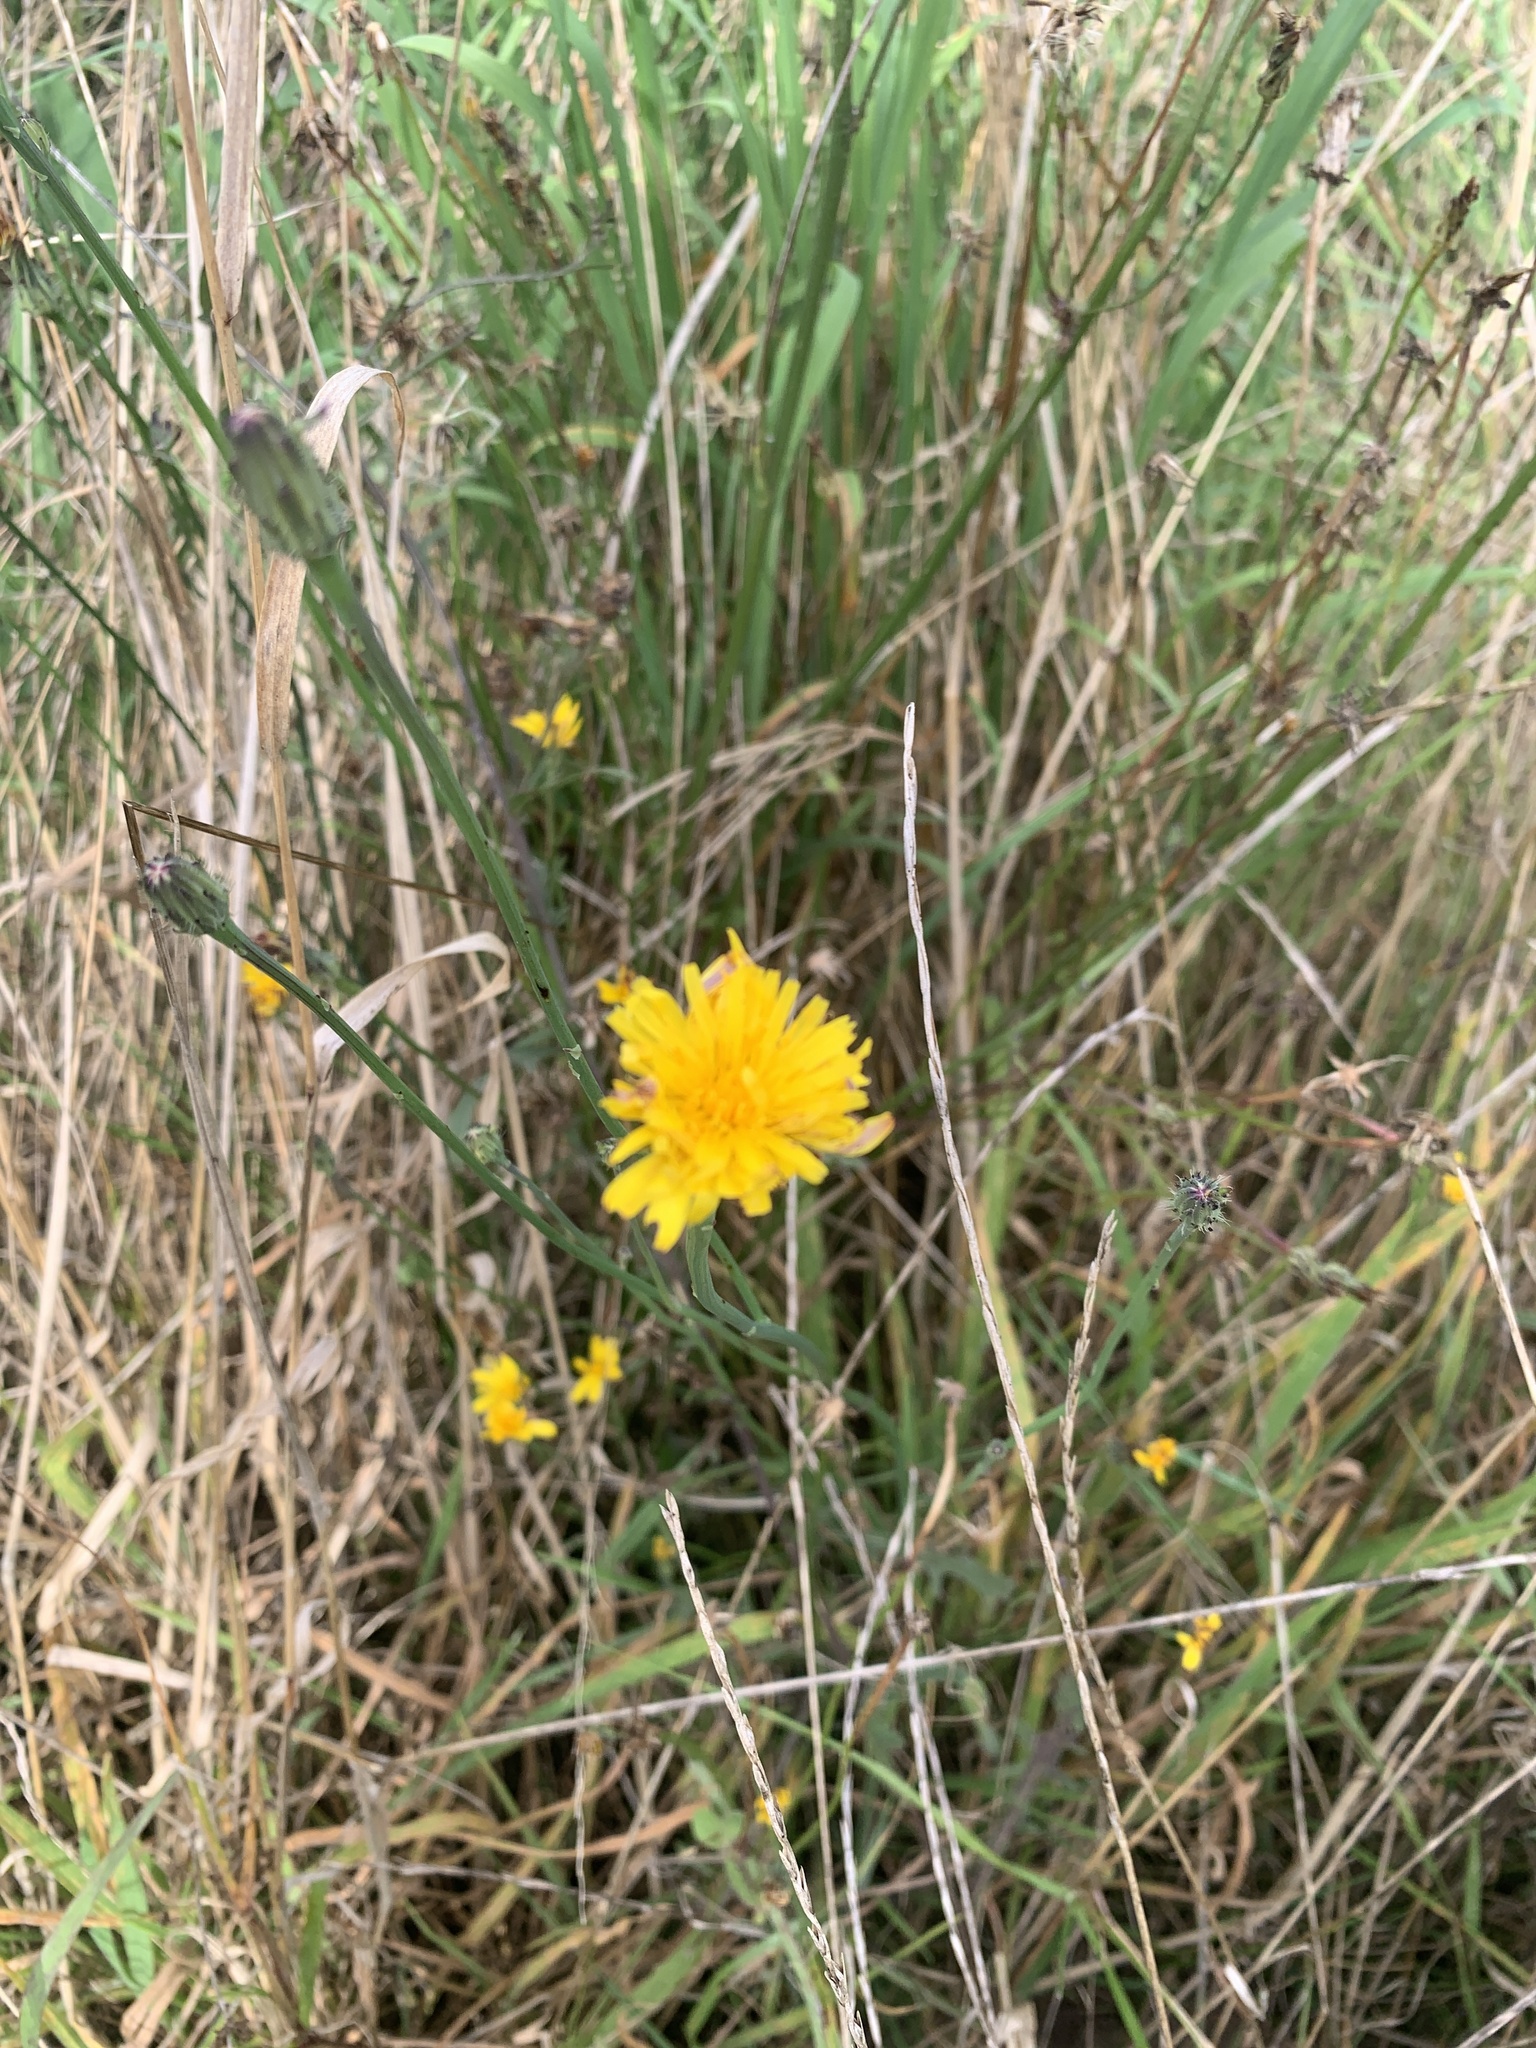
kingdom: Plantae
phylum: Tracheophyta
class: Magnoliopsida
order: Asterales
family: Asteraceae
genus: Hypochaeris
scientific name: Hypochaeris radicata
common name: Flatweed
